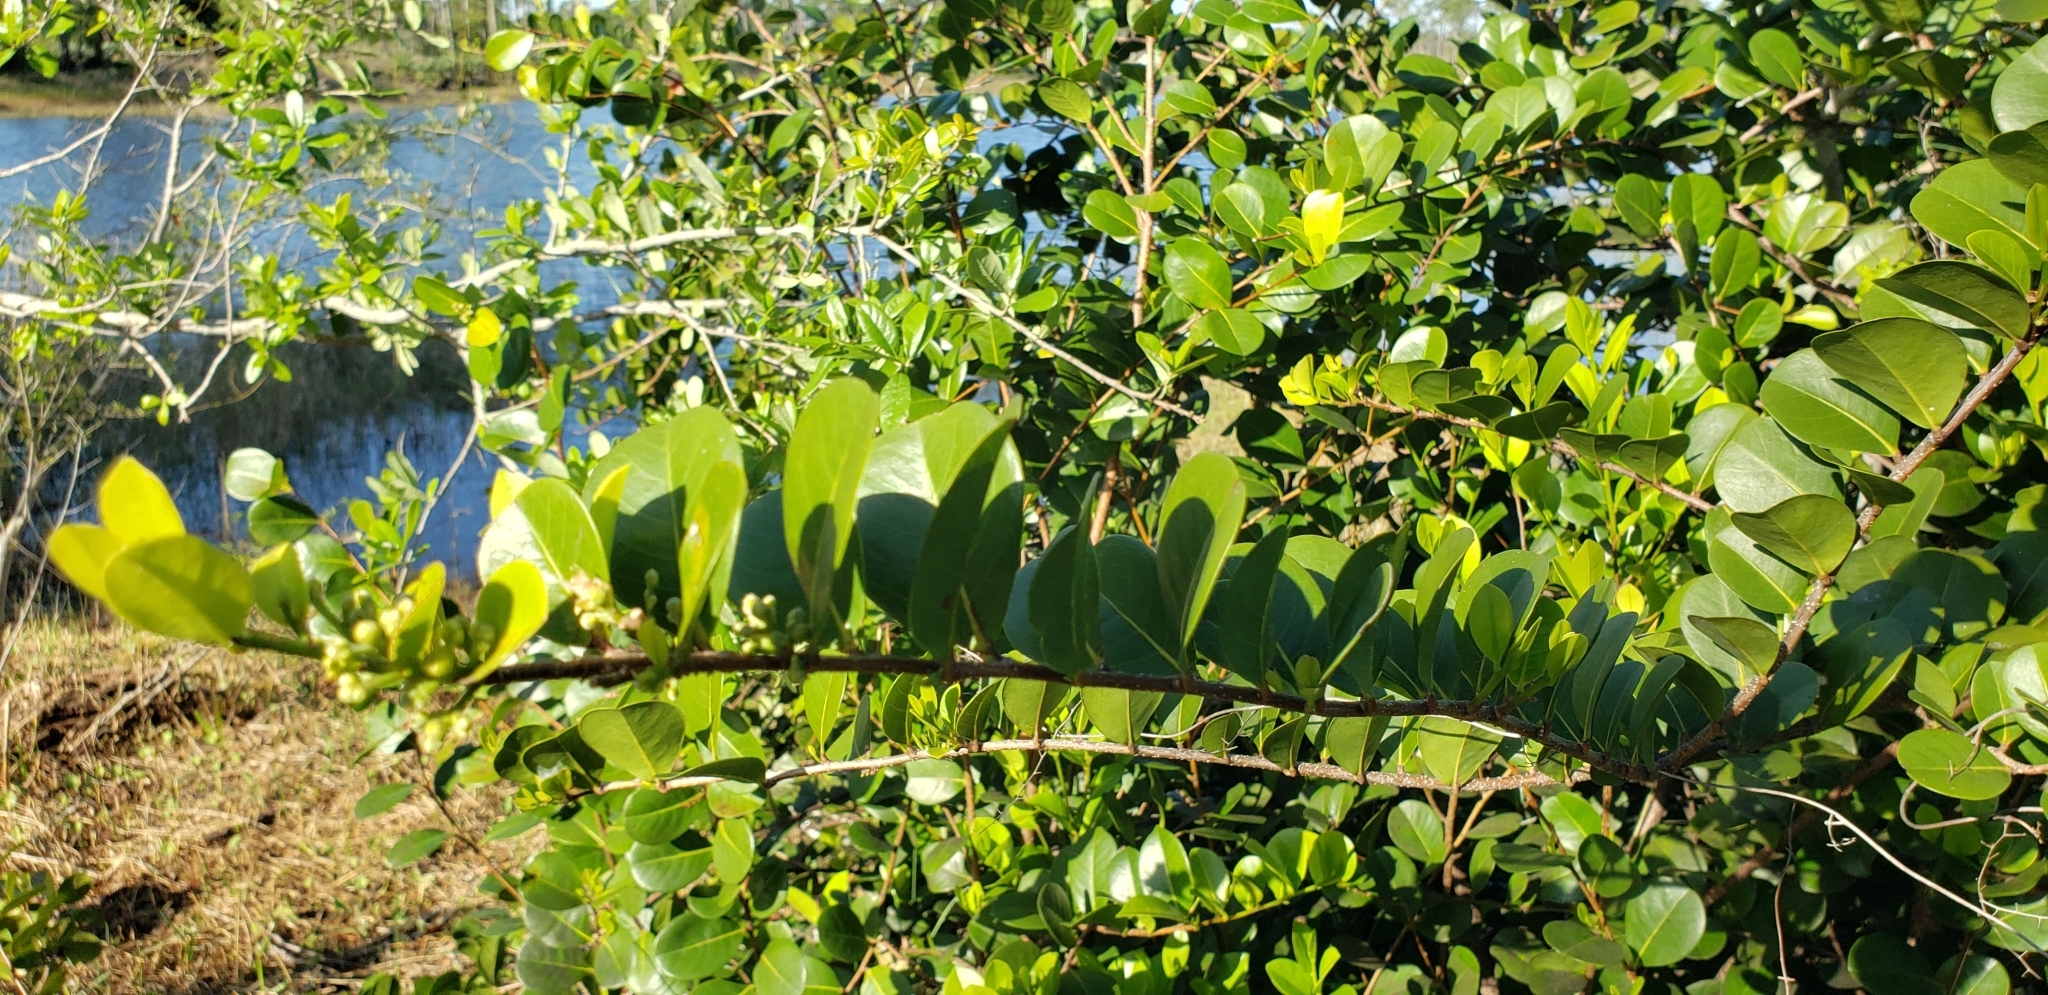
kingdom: Plantae
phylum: Tracheophyta
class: Magnoliopsida
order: Malpighiales
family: Chrysobalanaceae
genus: Chrysobalanus
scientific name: Chrysobalanus icaco
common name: Coco plum
